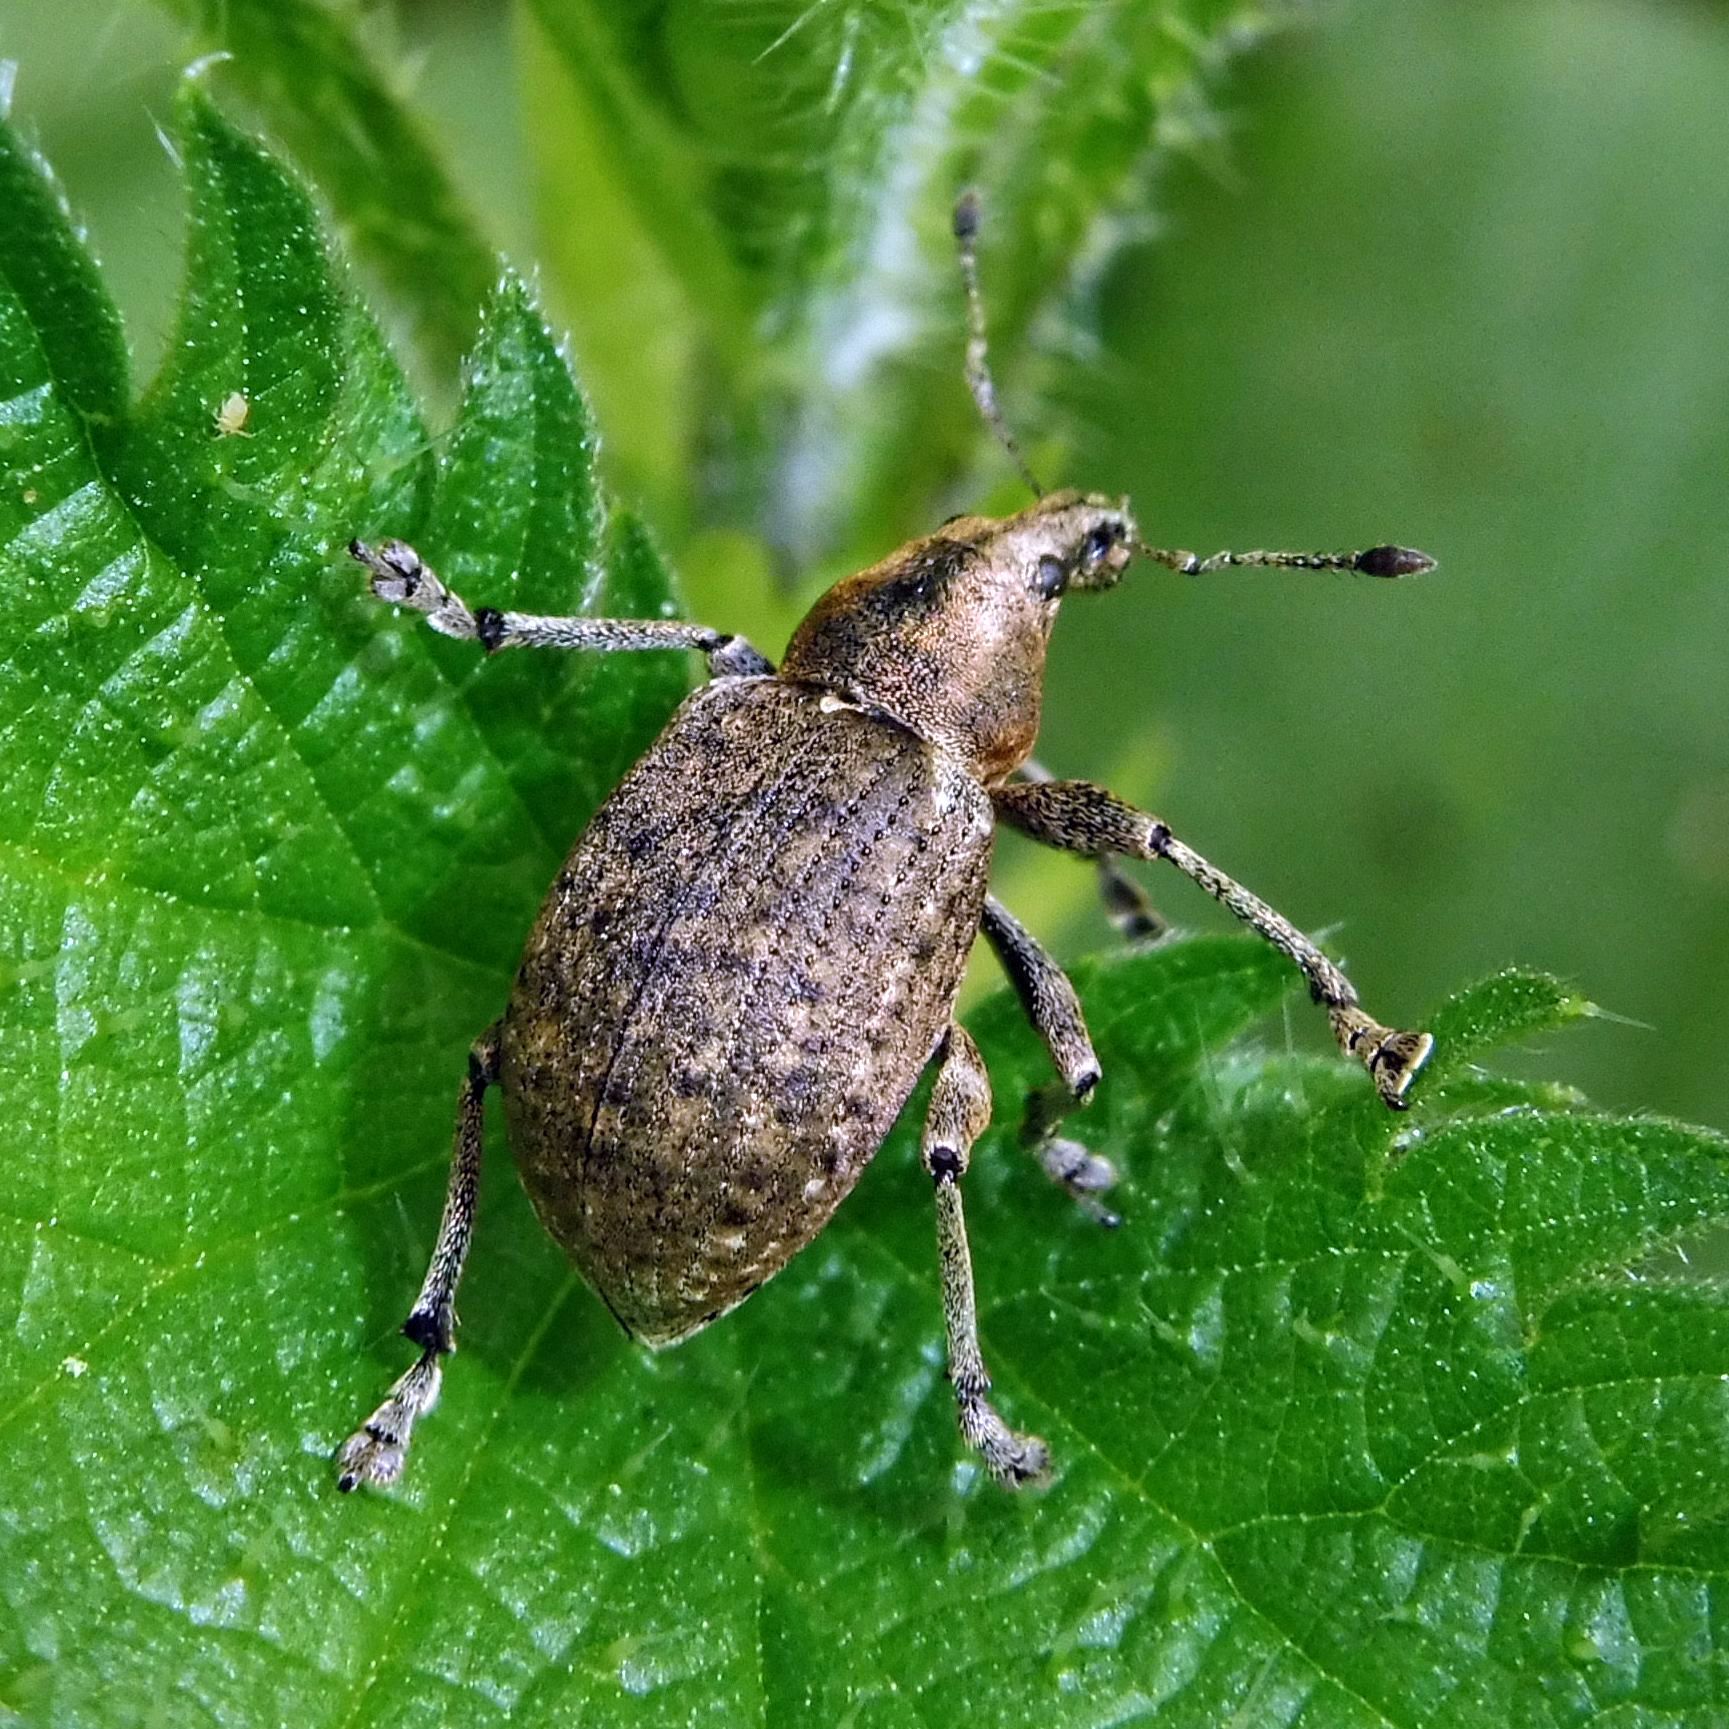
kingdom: Animalia
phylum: Arthropoda
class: Insecta
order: Coleoptera
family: Curculionidae
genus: Liophloeus
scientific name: Liophloeus tessulatus
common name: Weevil
